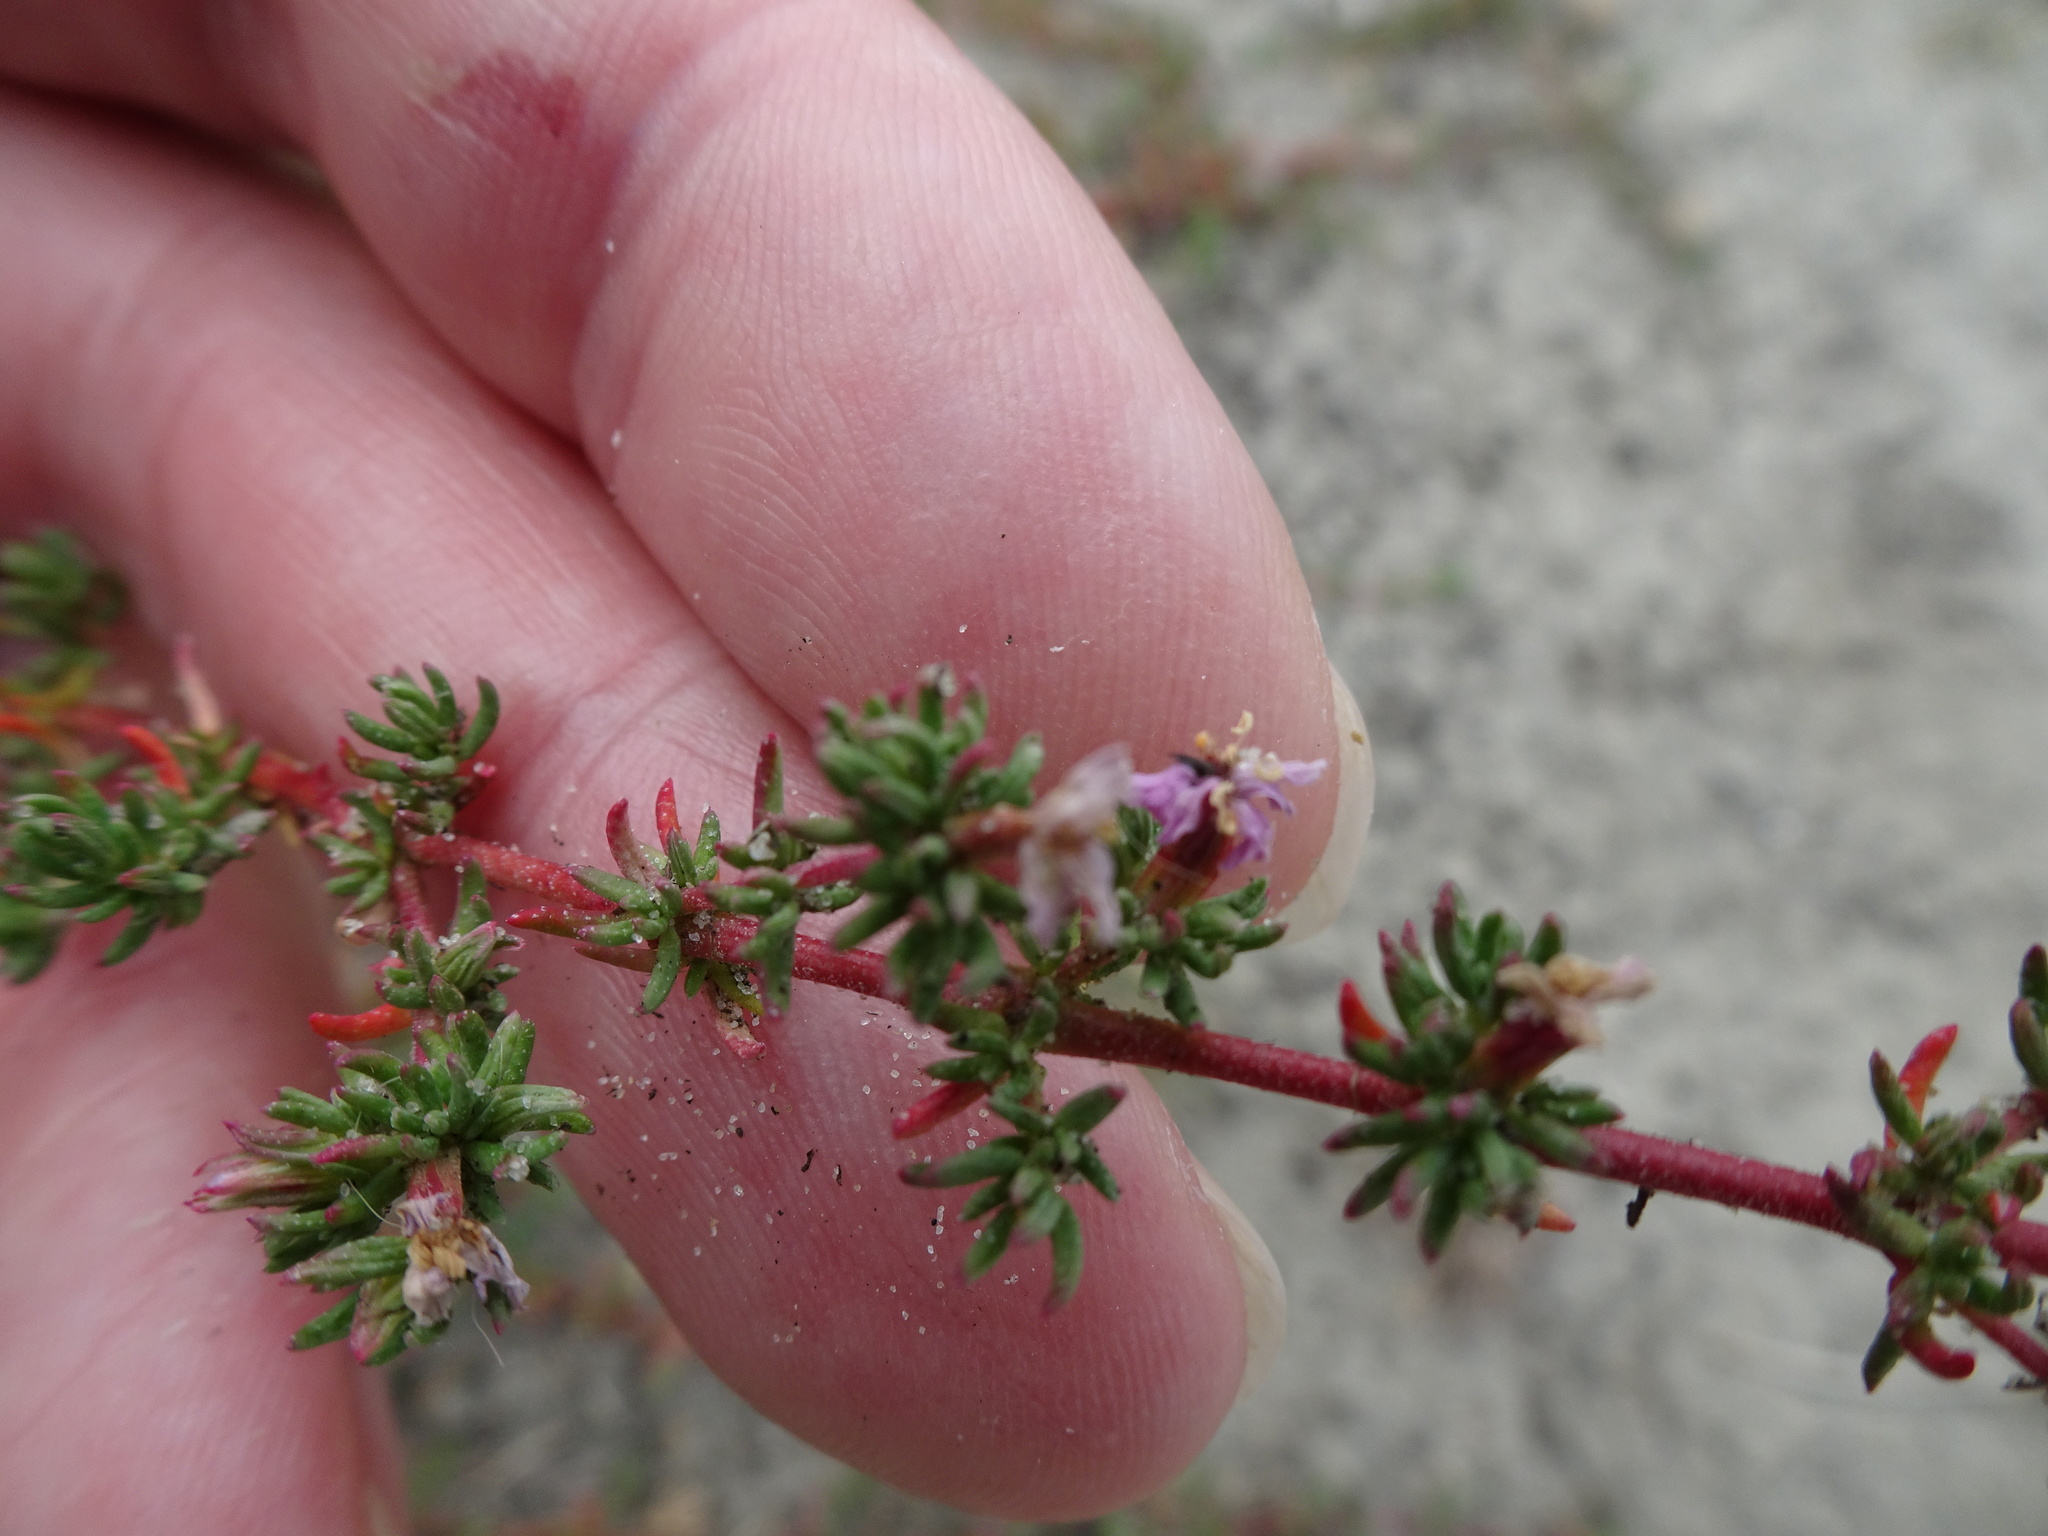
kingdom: Plantae
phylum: Tracheophyta
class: Magnoliopsida
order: Caryophyllales
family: Frankeniaceae
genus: Frankenia
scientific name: Frankenia laevis
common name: Sea-heath
